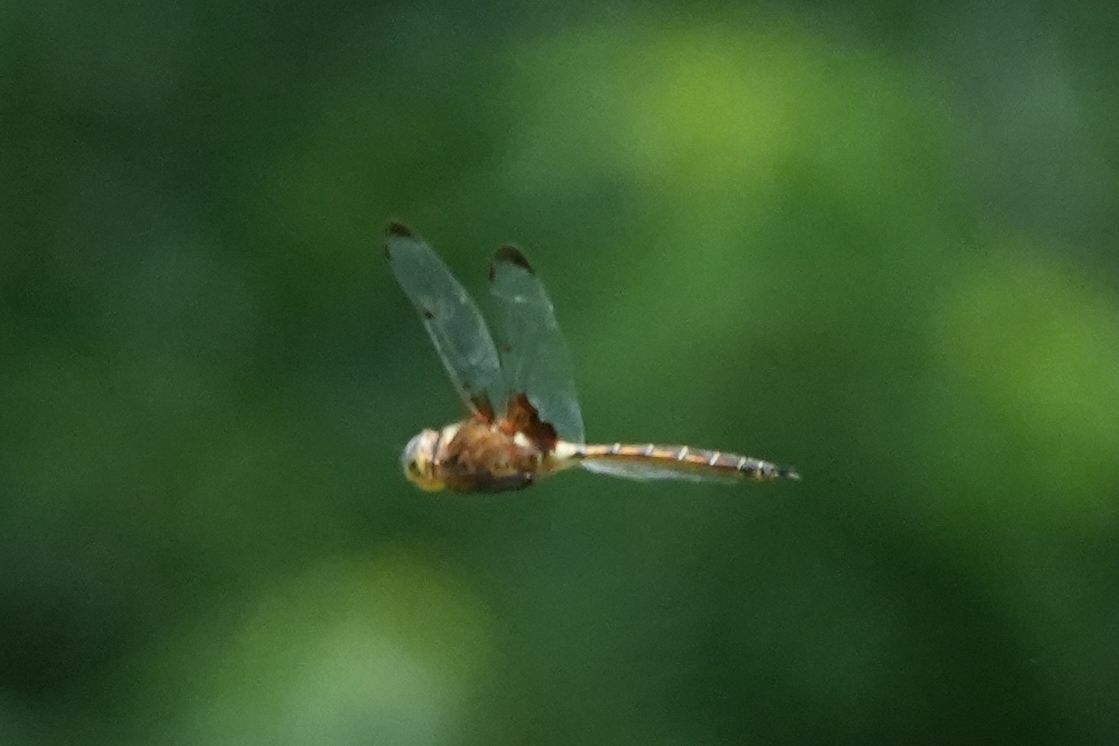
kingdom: Animalia
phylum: Arthropoda
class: Insecta
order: Odonata
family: Corduliidae
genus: Epitheca
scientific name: Epitheca princeps
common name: Prince baskettail
